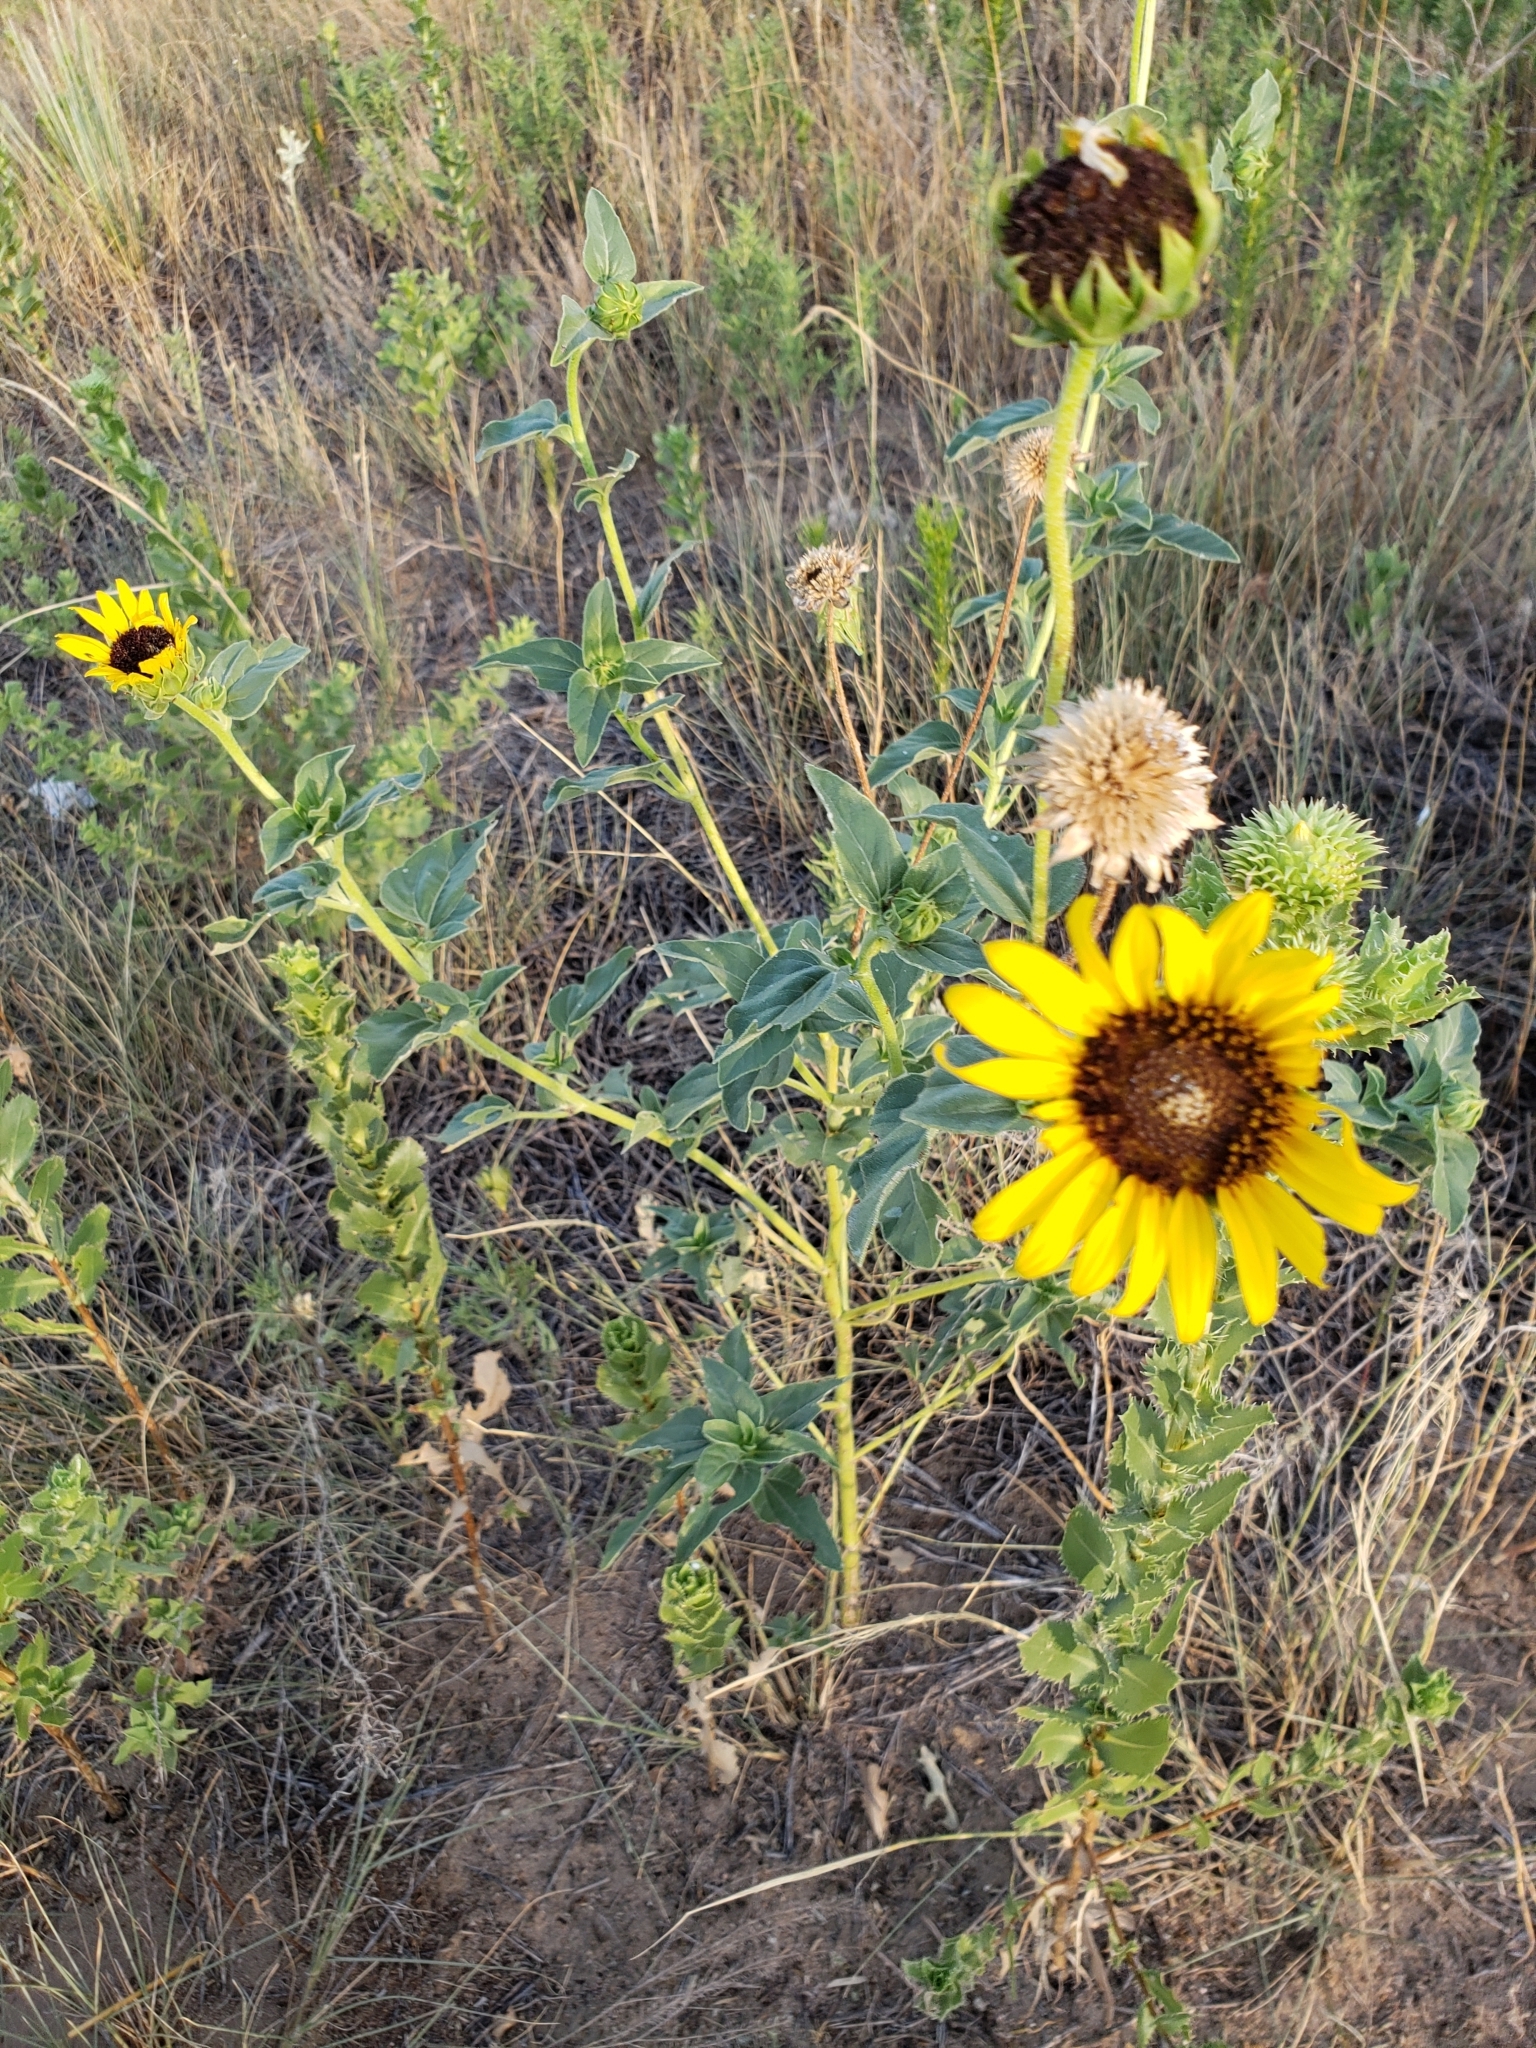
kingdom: Plantae
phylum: Tracheophyta
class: Magnoliopsida
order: Asterales
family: Asteraceae
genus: Helianthus
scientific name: Helianthus annuus
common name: Sunflower
